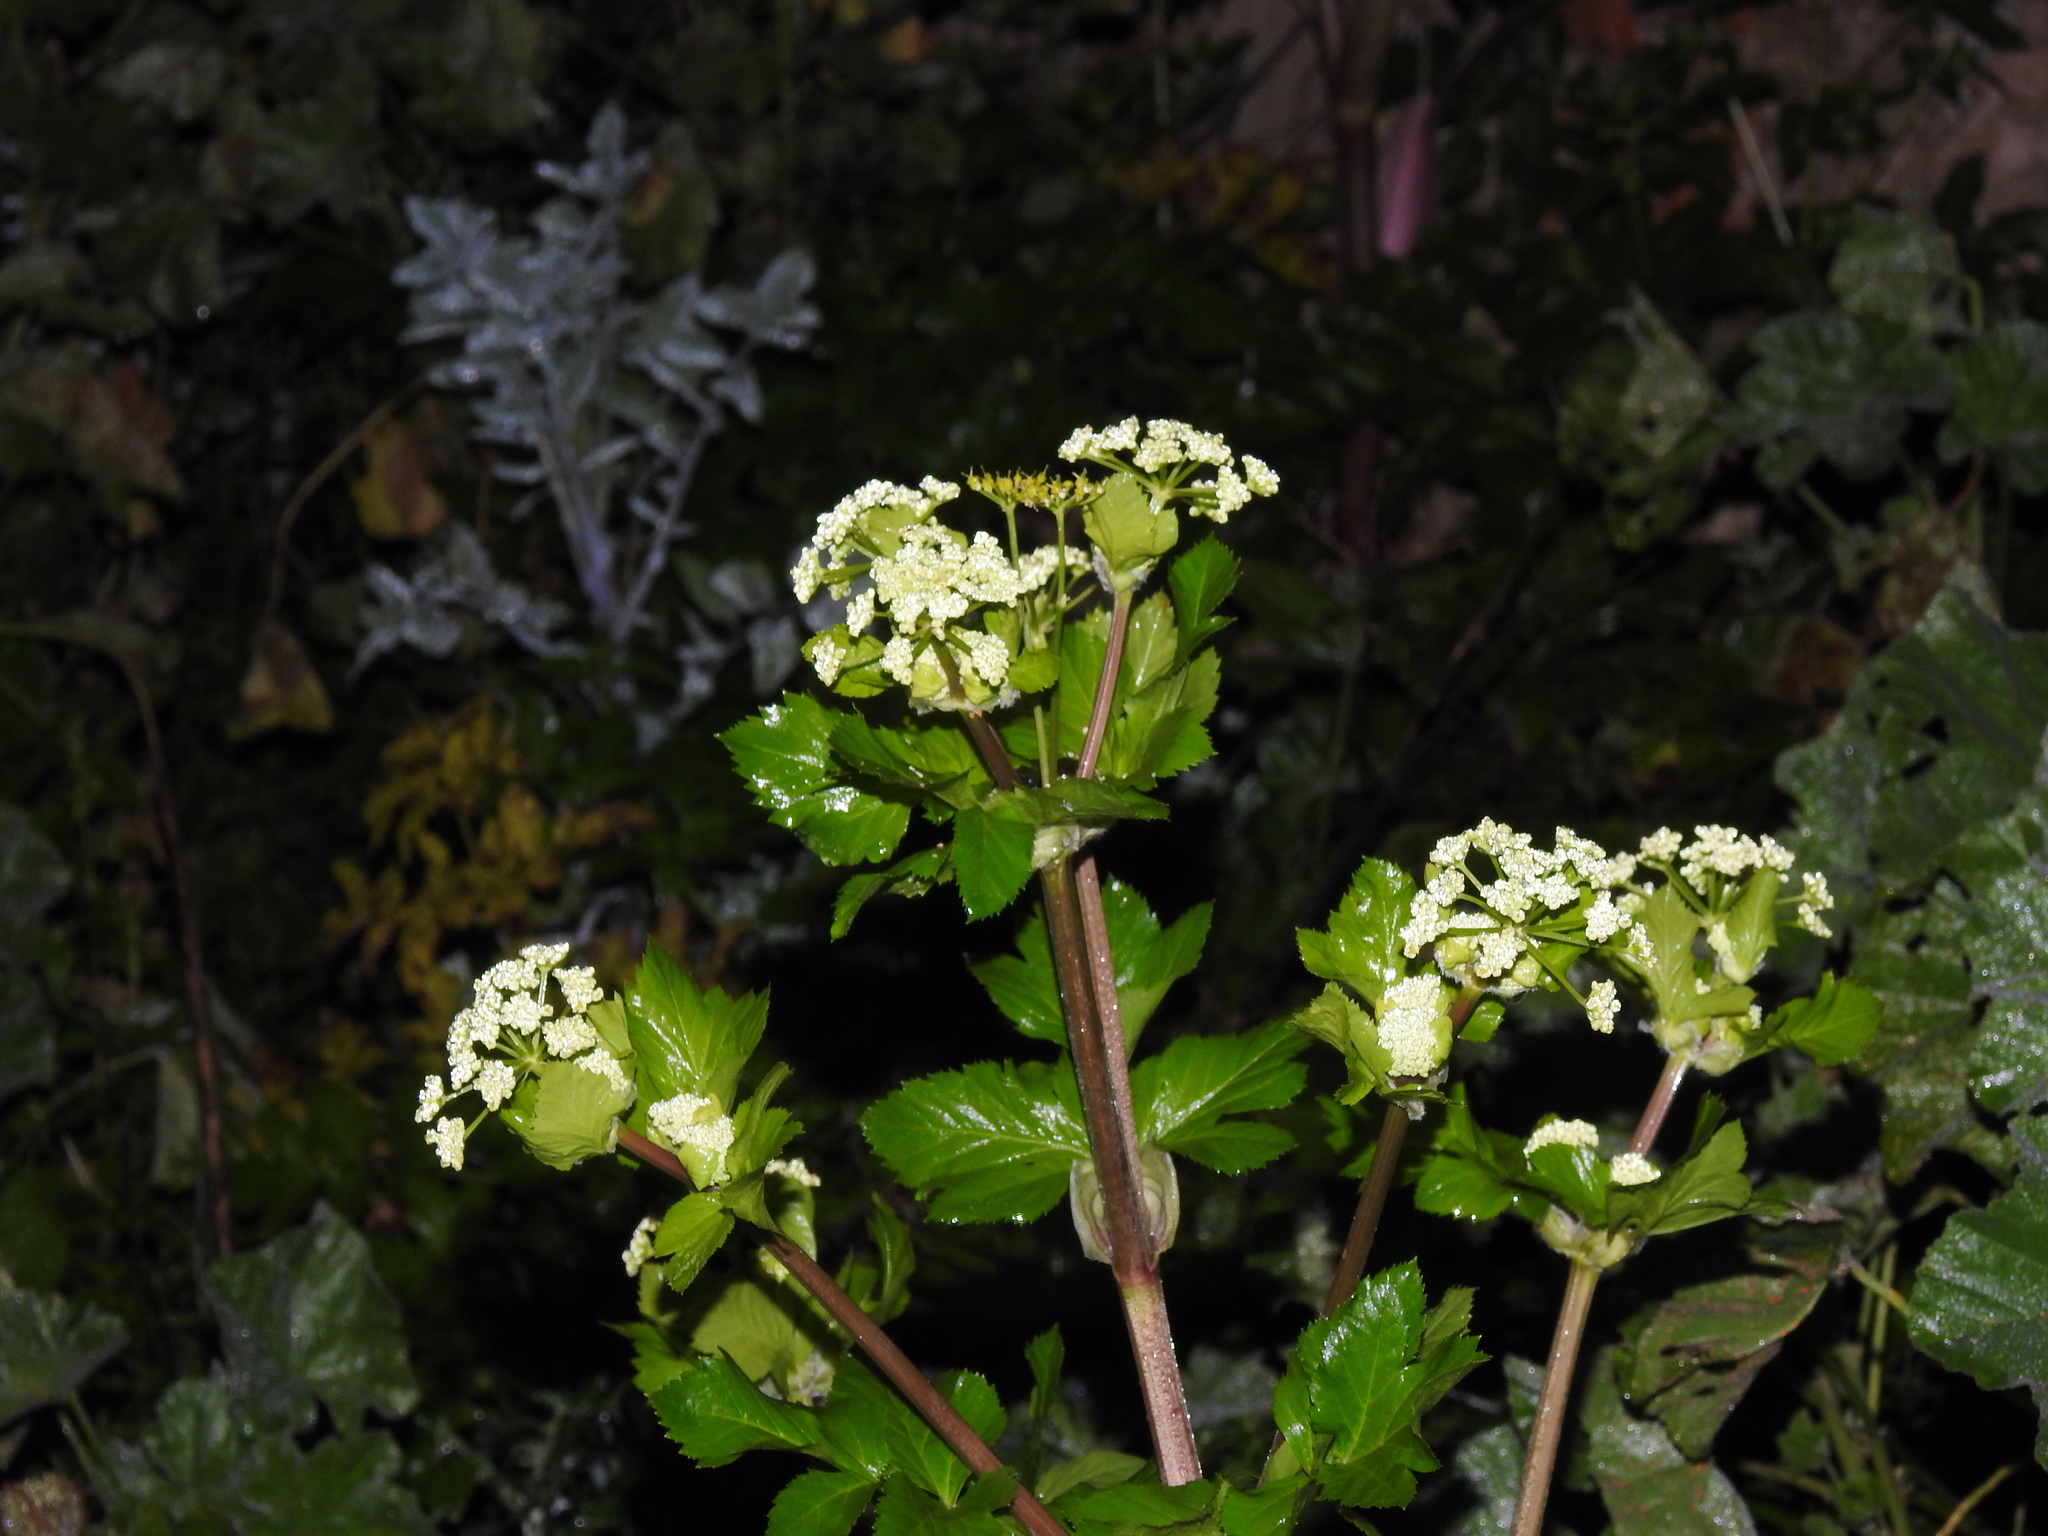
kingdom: Plantae
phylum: Tracheophyta
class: Magnoliopsida
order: Apiales
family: Apiaceae
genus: Smyrnium
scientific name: Smyrnium olusatrum
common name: Alexanders
